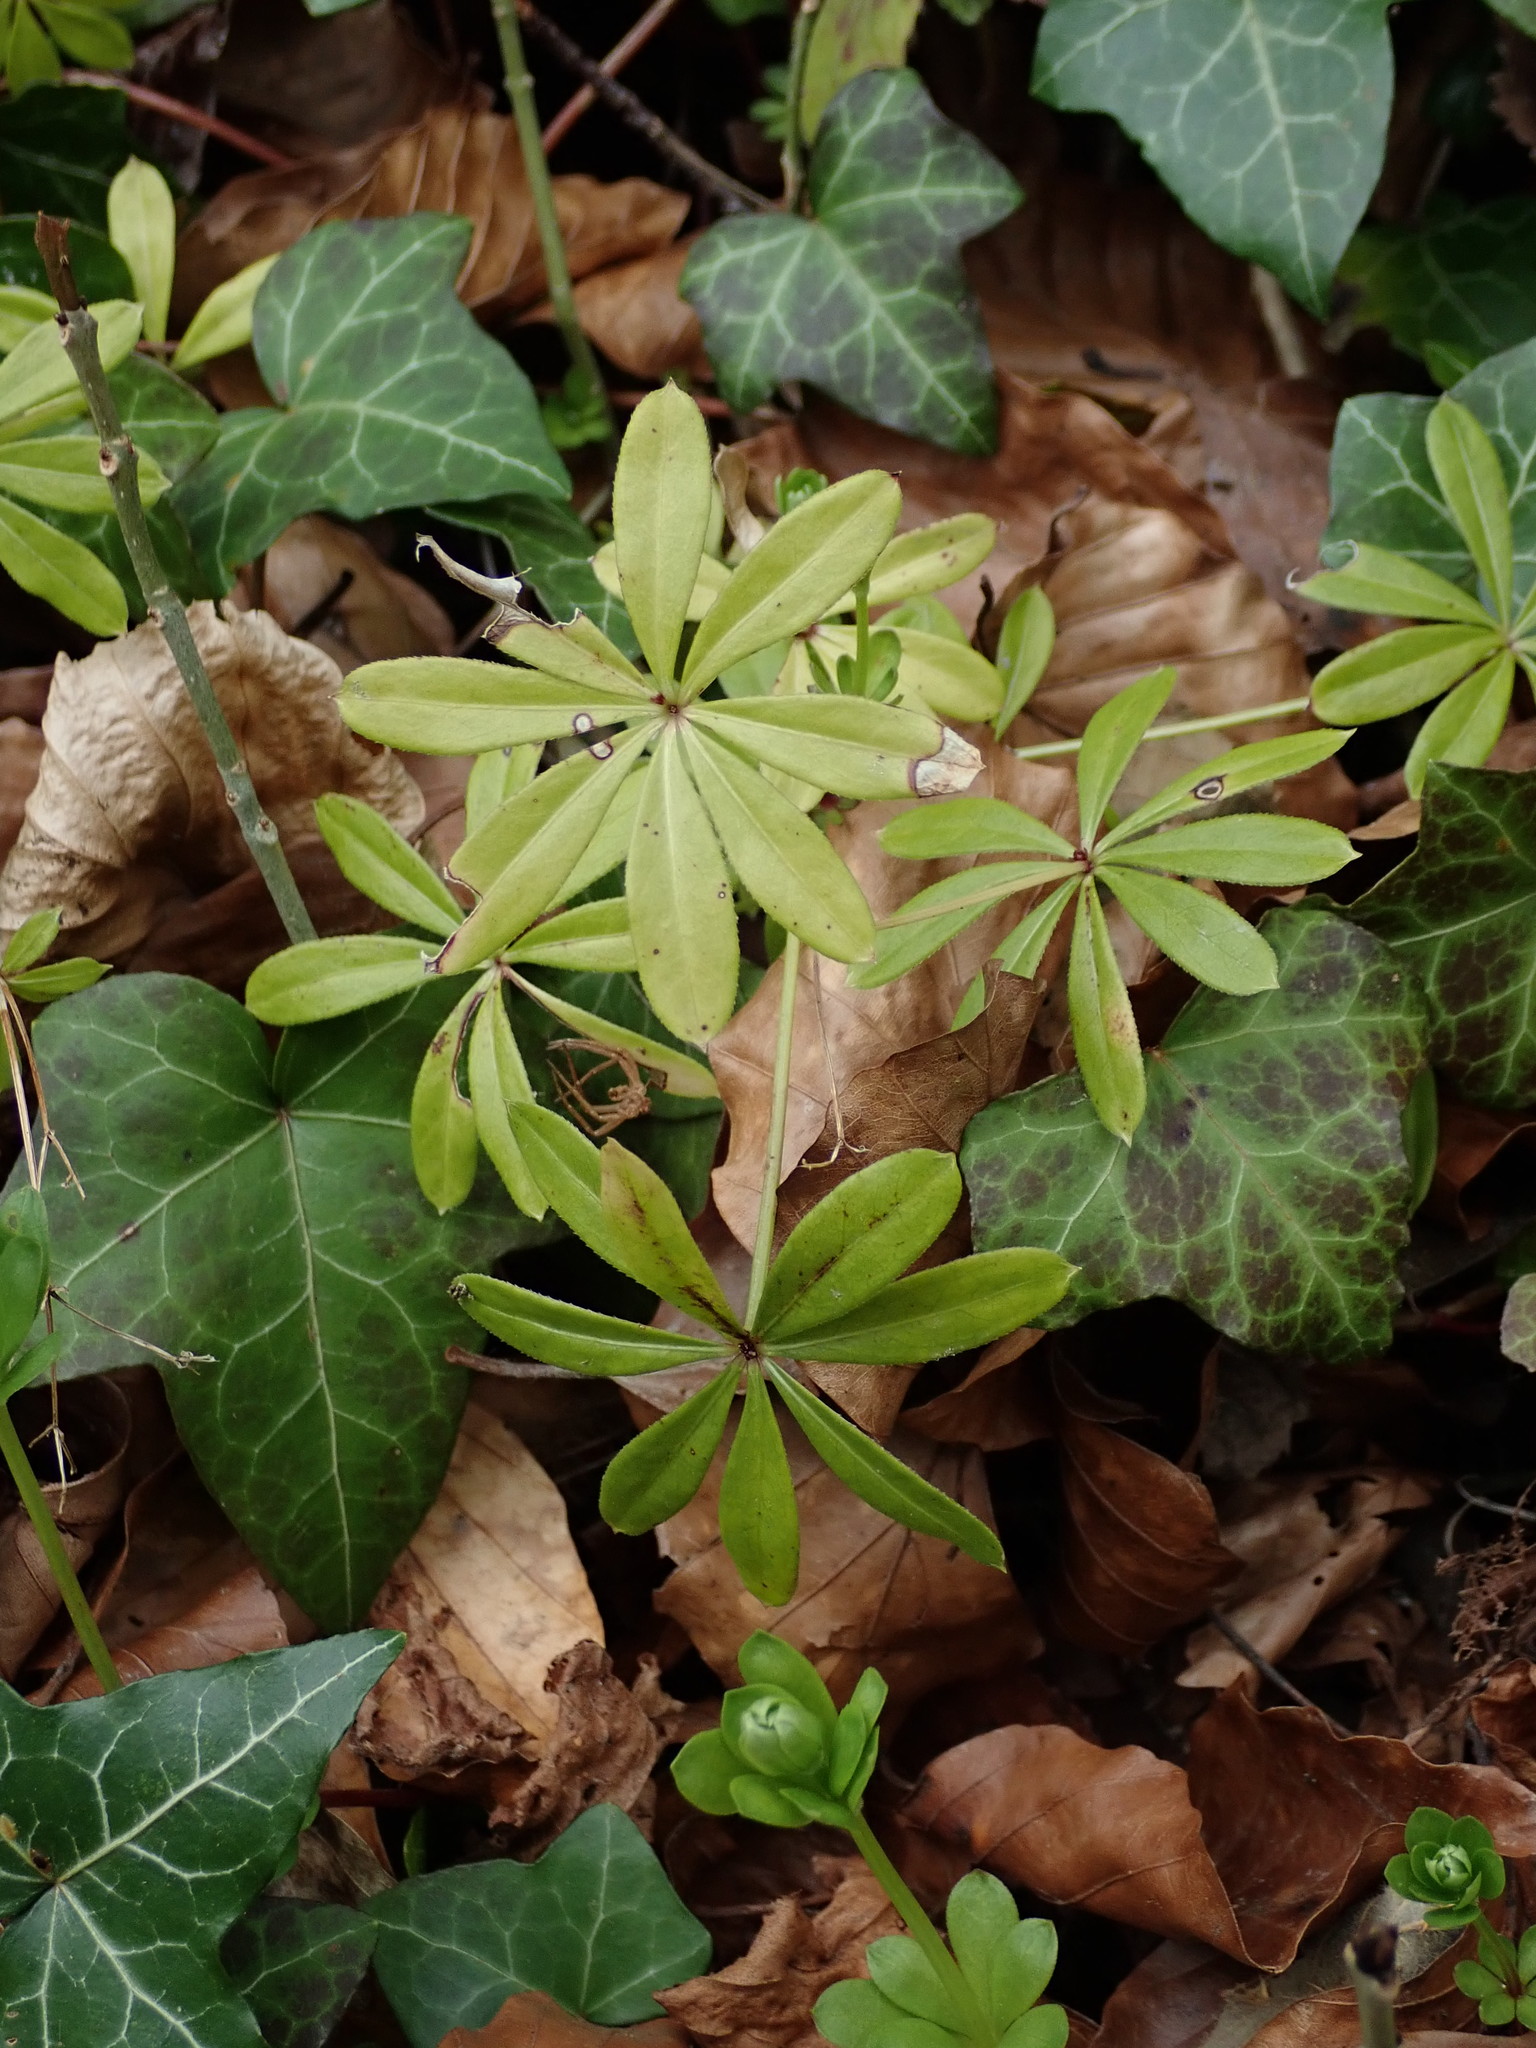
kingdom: Plantae
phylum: Tracheophyta
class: Magnoliopsida
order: Gentianales
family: Rubiaceae
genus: Galium
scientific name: Galium odoratum
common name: Sweet woodruff
